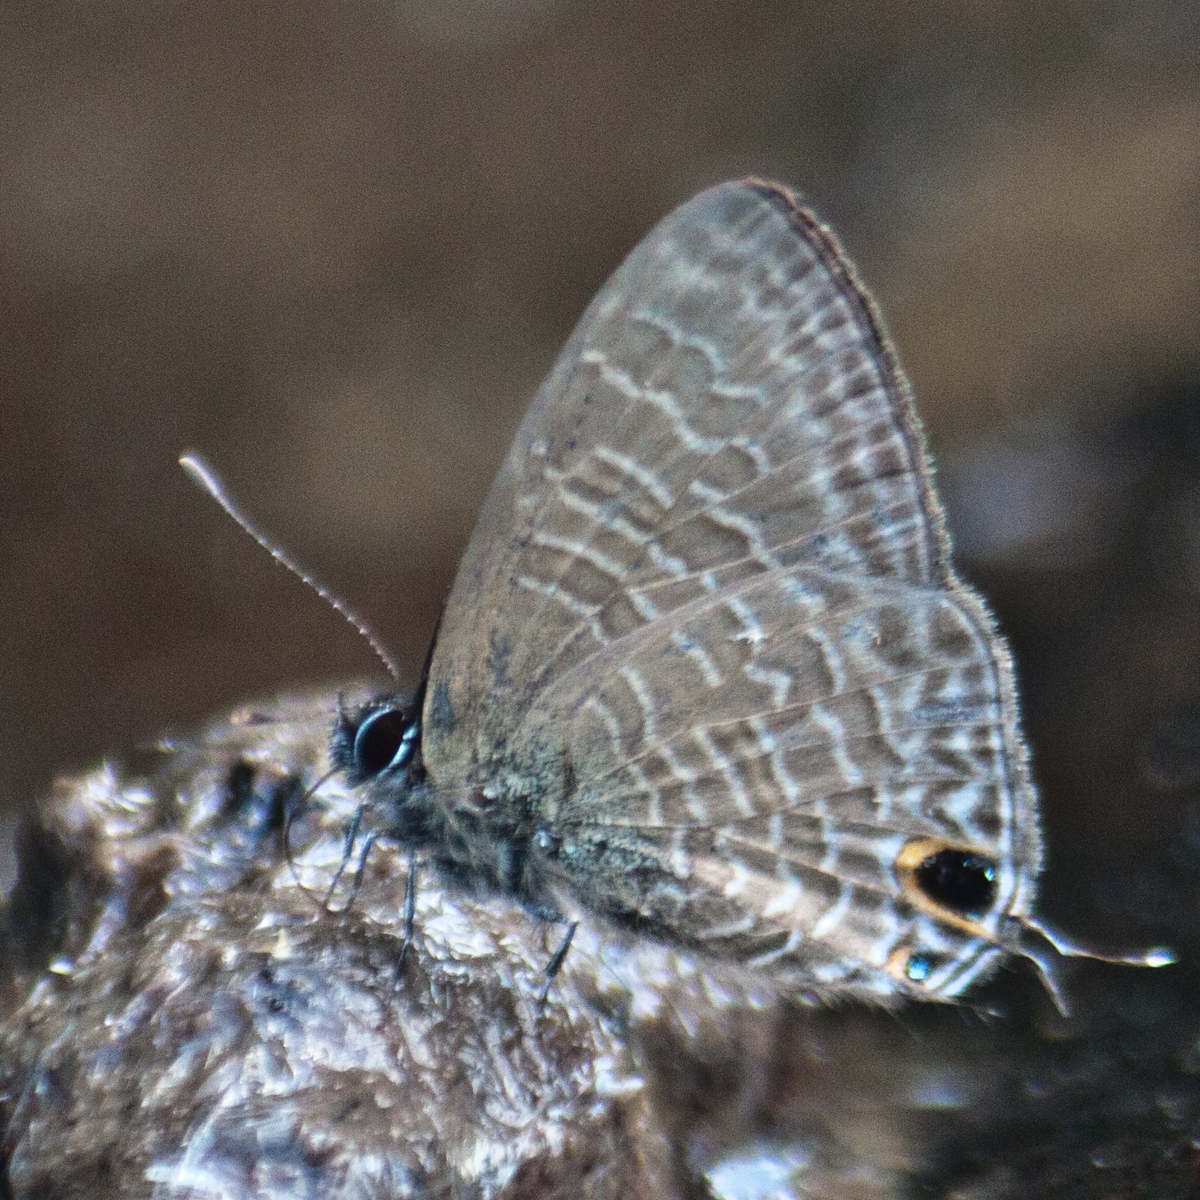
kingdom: Animalia
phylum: Arthropoda
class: Insecta
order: Lepidoptera
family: Lycaenidae
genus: Ionolyce
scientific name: Ionolyce helicon
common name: Pointed line blue
